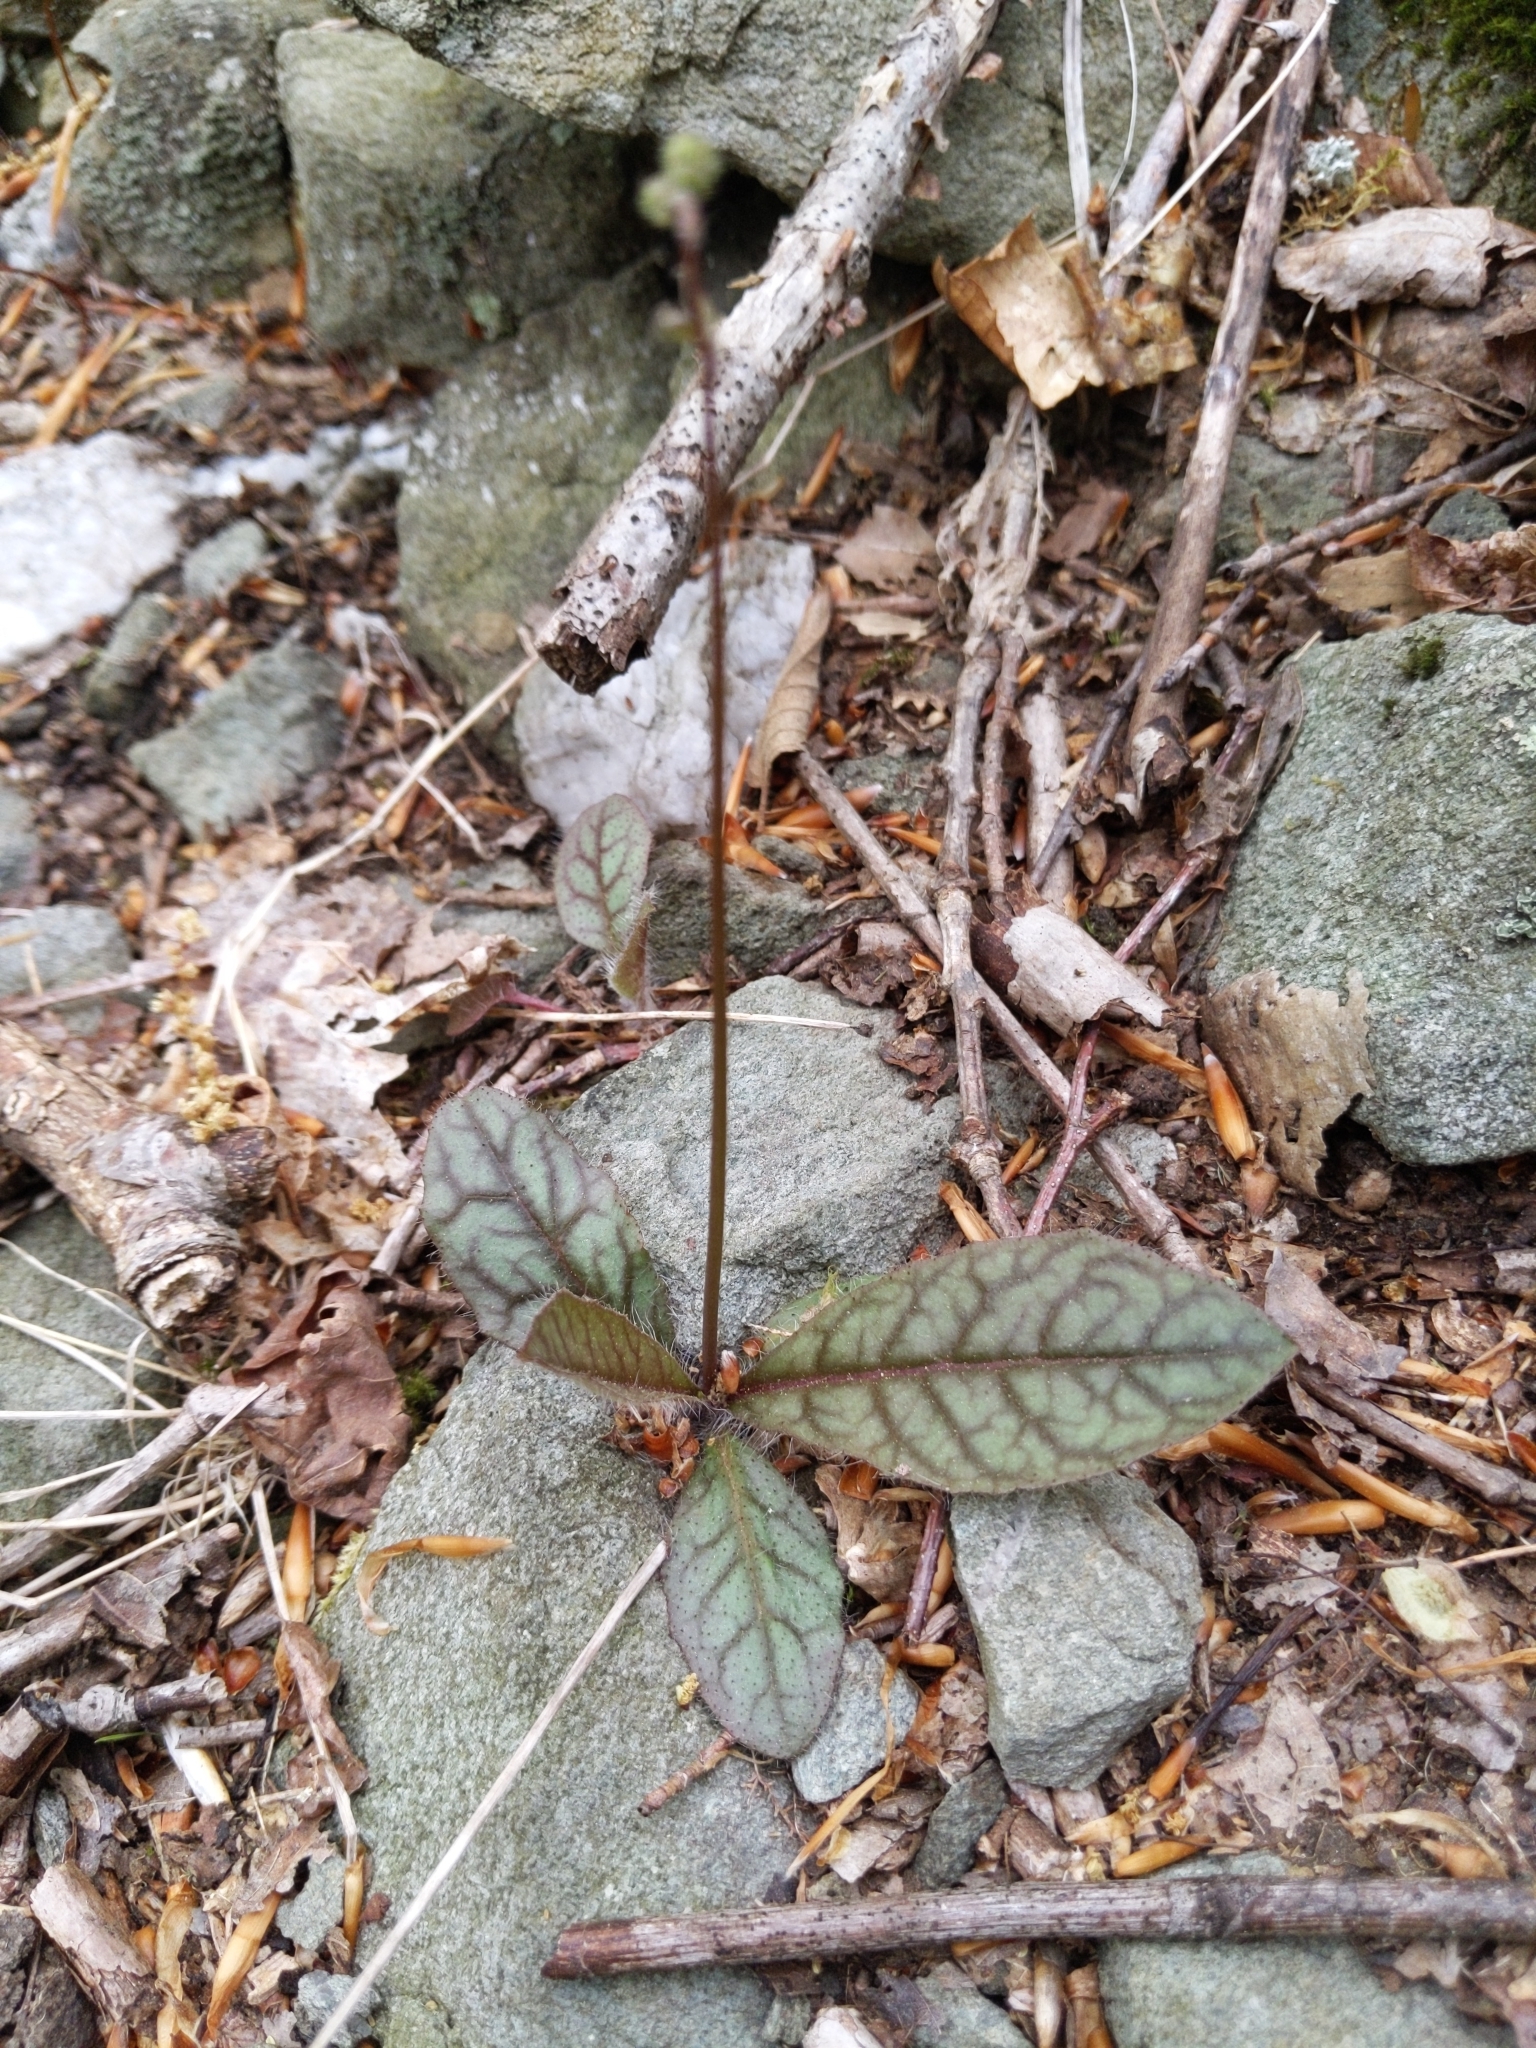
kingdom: Plantae
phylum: Tracheophyta
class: Magnoliopsida
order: Asterales
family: Asteraceae
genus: Hieracium
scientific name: Hieracium venosum
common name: Rattlesnake hawkweed
